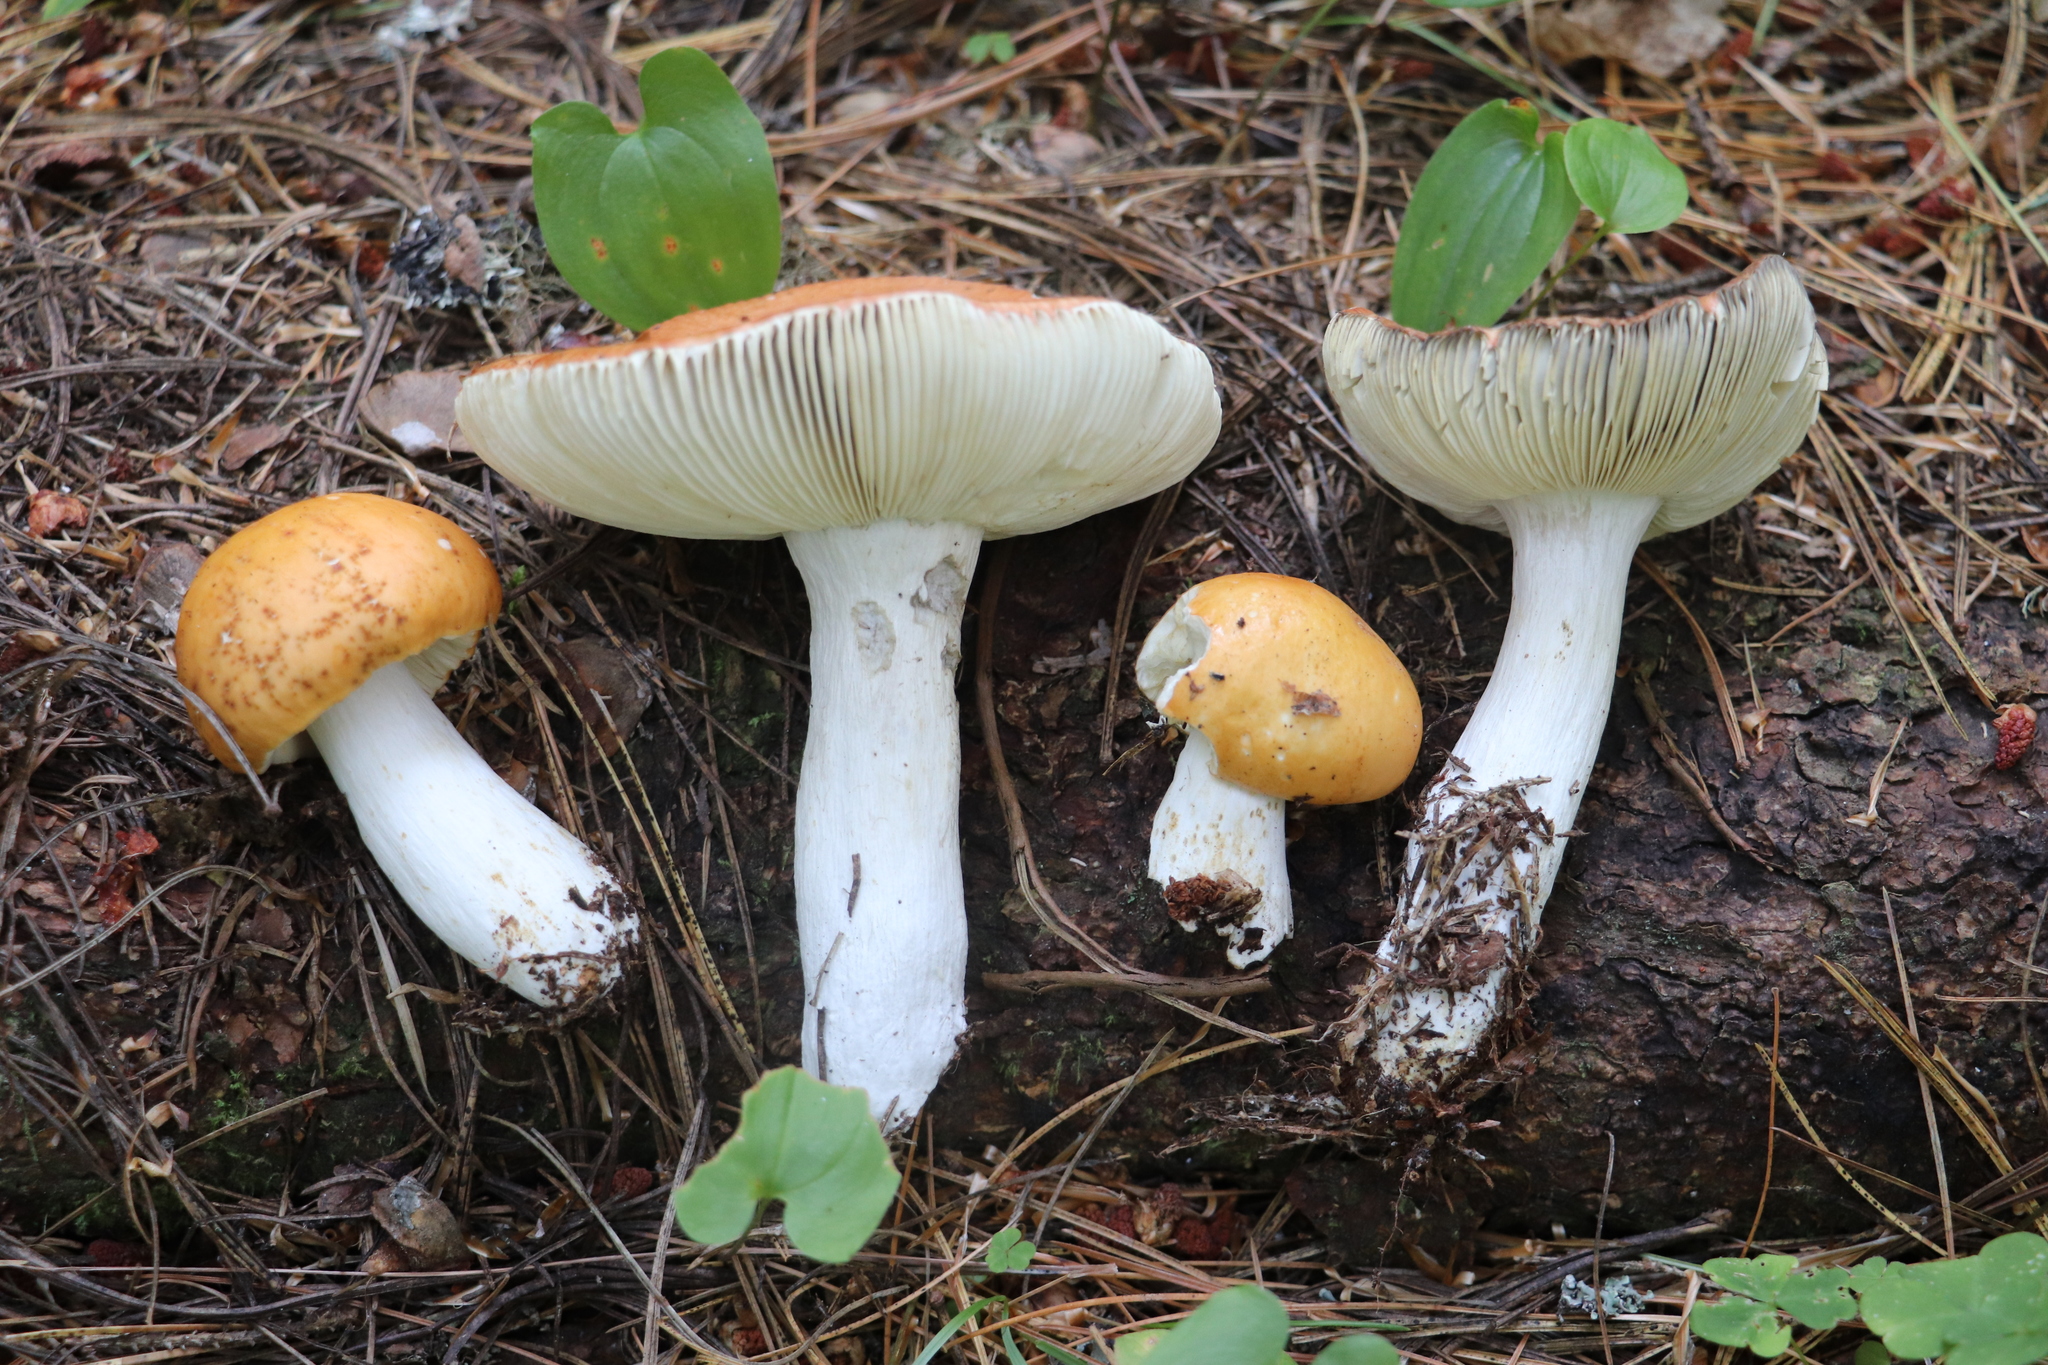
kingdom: Fungi
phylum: Basidiomycota
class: Agaricomycetes
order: Russulales
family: Russulaceae
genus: Russula
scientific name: Russula decolorans
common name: Copper brittlegill
